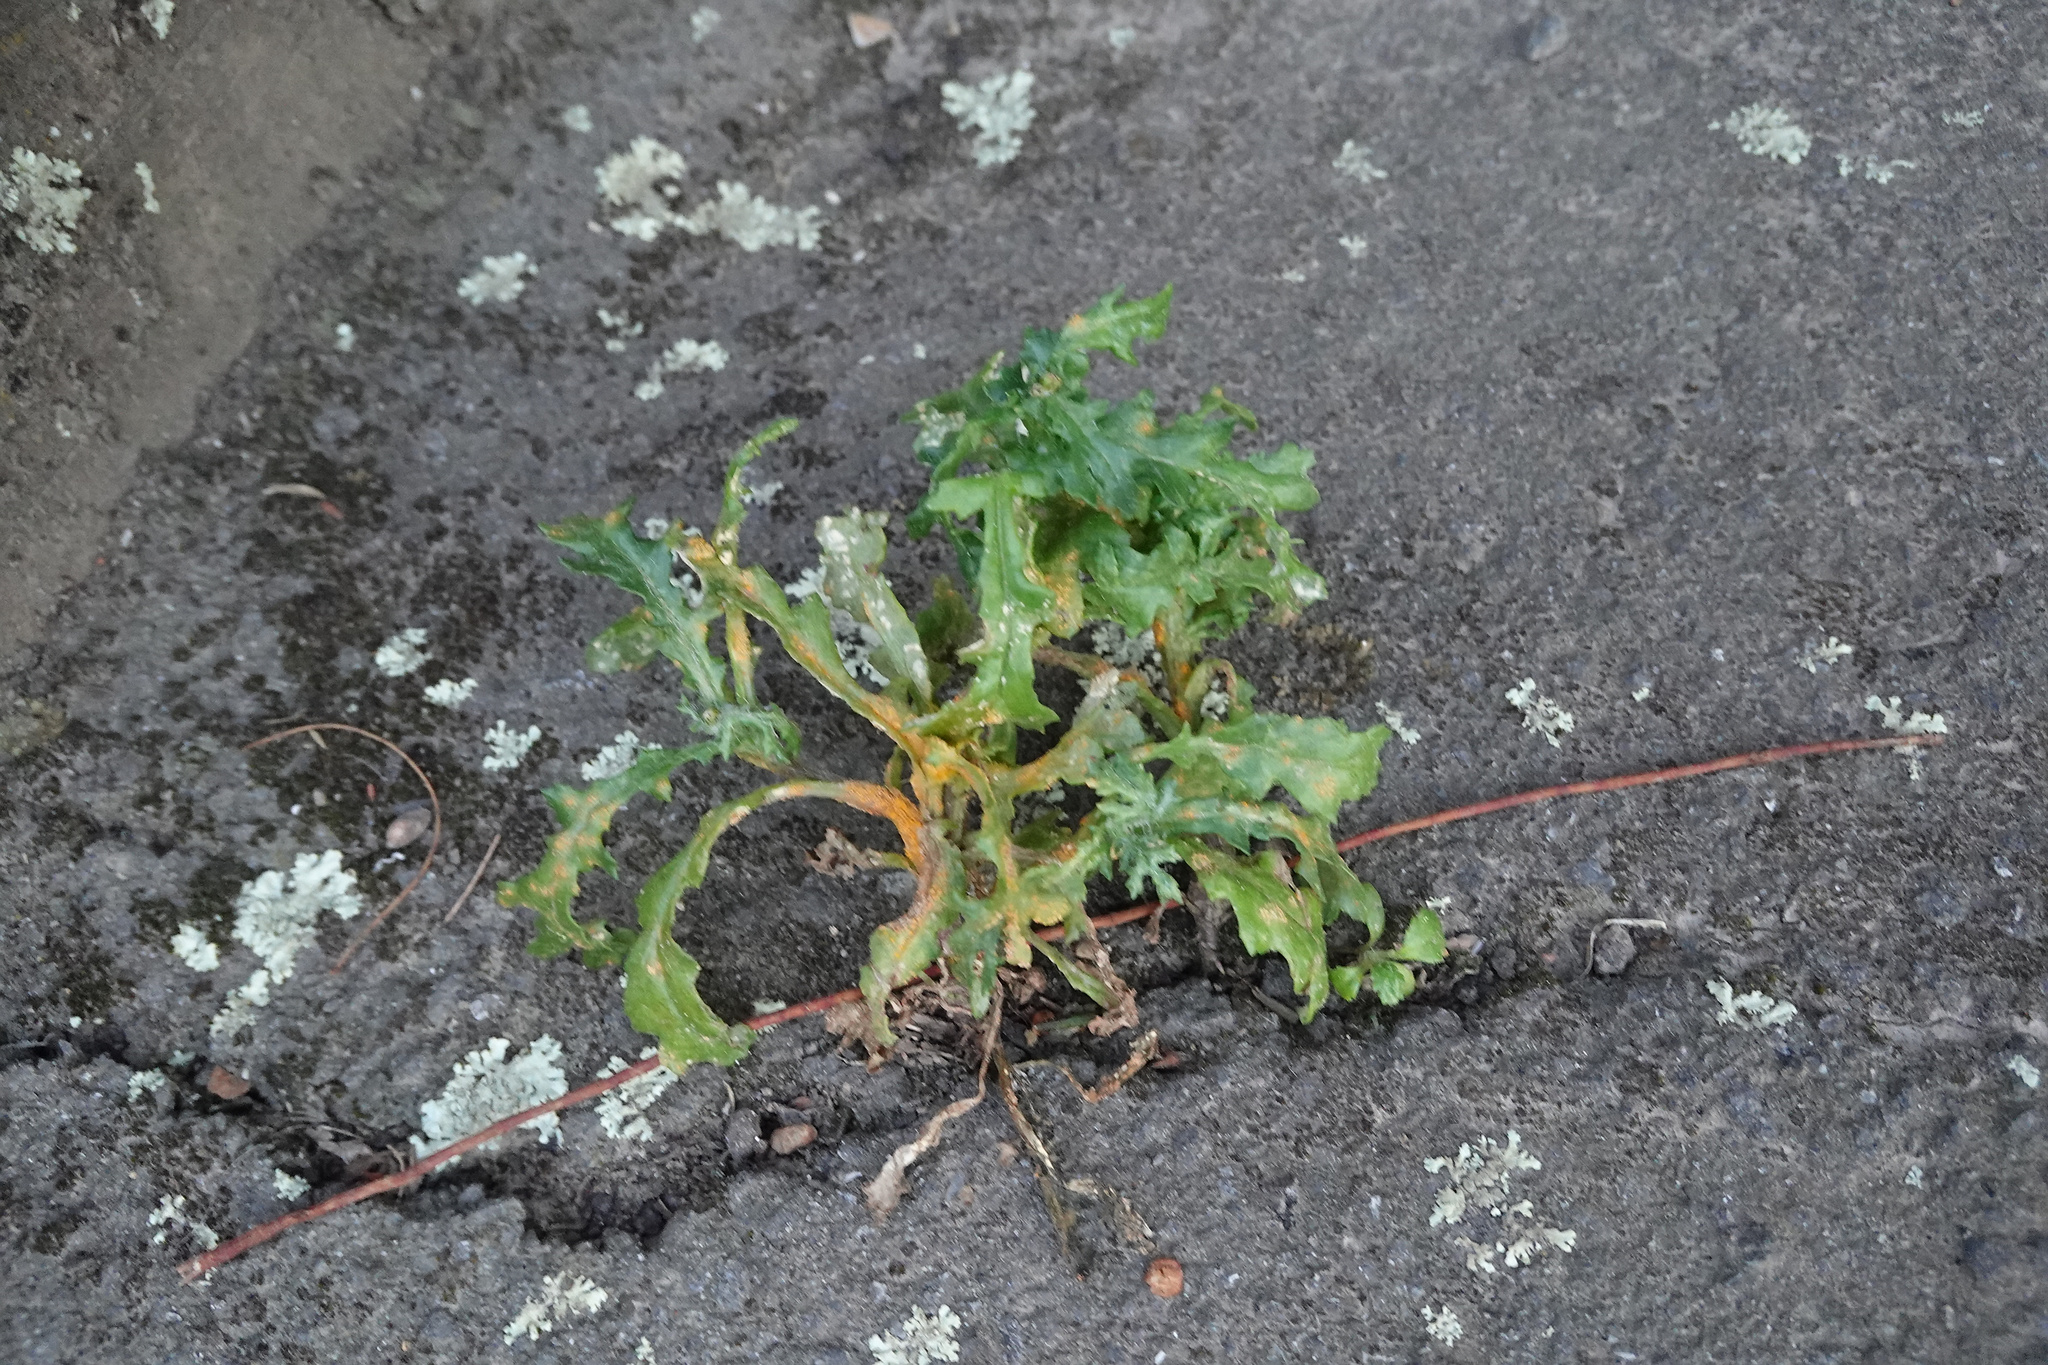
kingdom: Fungi
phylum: Basidiomycota
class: Pucciniomycetes
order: Pucciniales
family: Pucciniaceae
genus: Puccinia
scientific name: Puccinia lagenophorae
